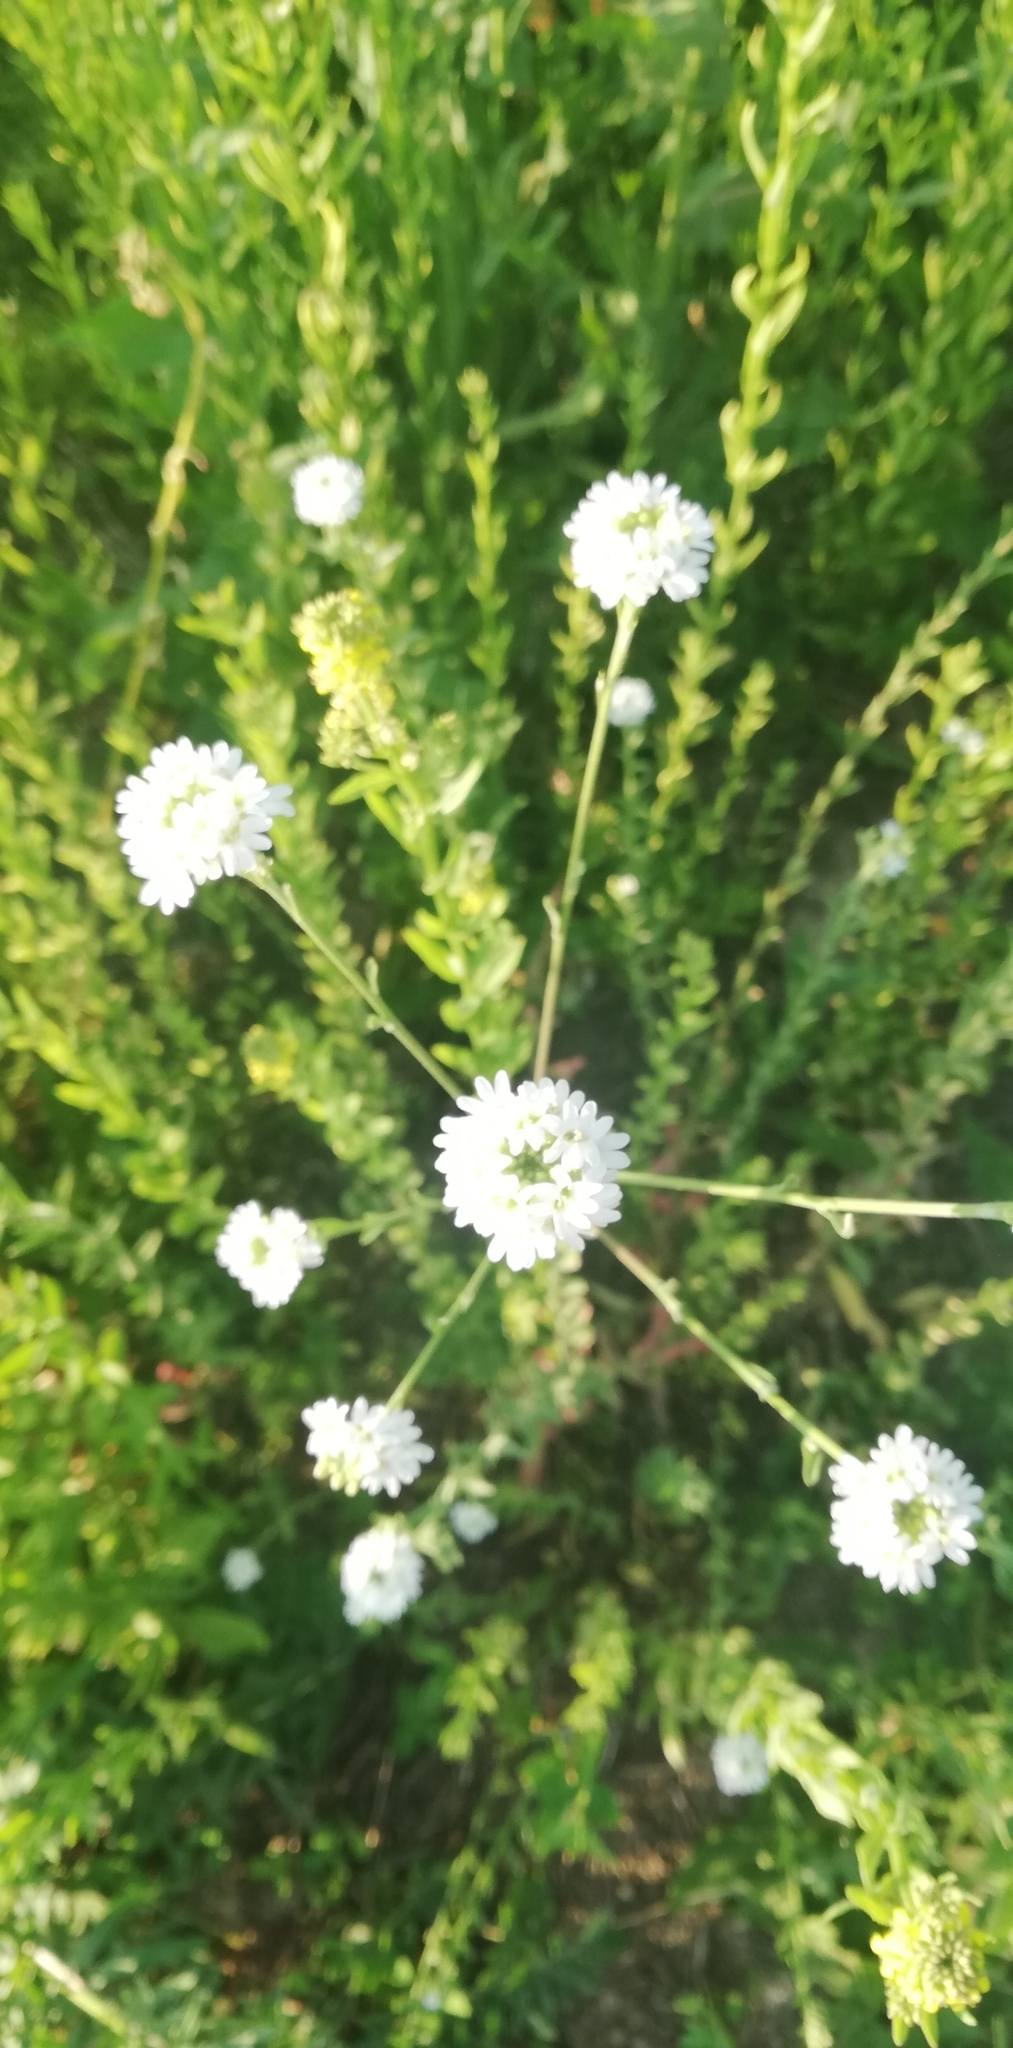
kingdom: Plantae
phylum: Tracheophyta
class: Magnoliopsida
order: Brassicales
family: Brassicaceae
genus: Berteroa
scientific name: Berteroa incana
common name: Hoary alison
